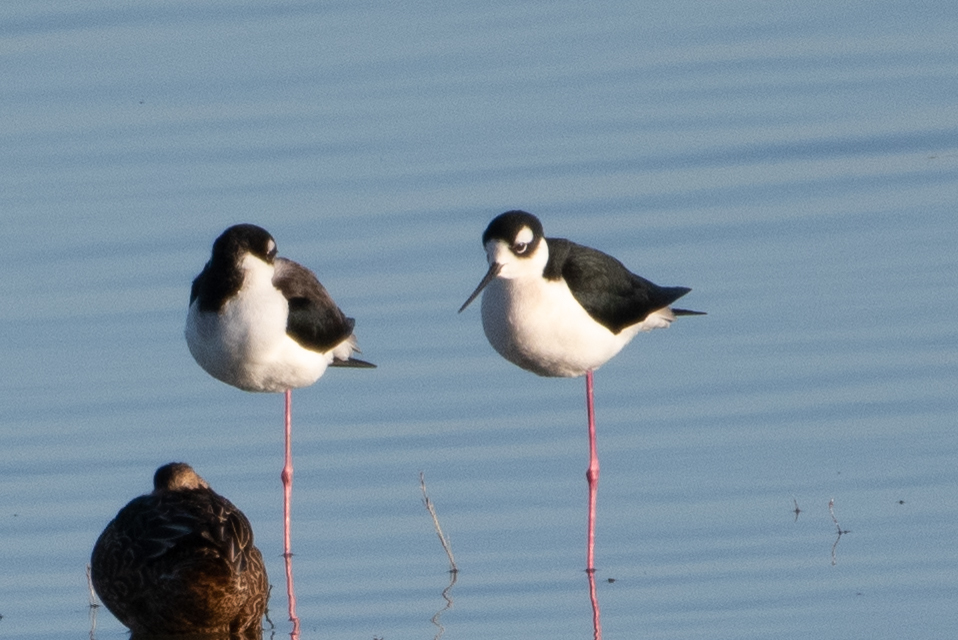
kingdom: Animalia
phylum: Chordata
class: Aves
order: Charadriiformes
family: Recurvirostridae
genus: Himantopus
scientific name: Himantopus mexicanus
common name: Black-necked stilt
